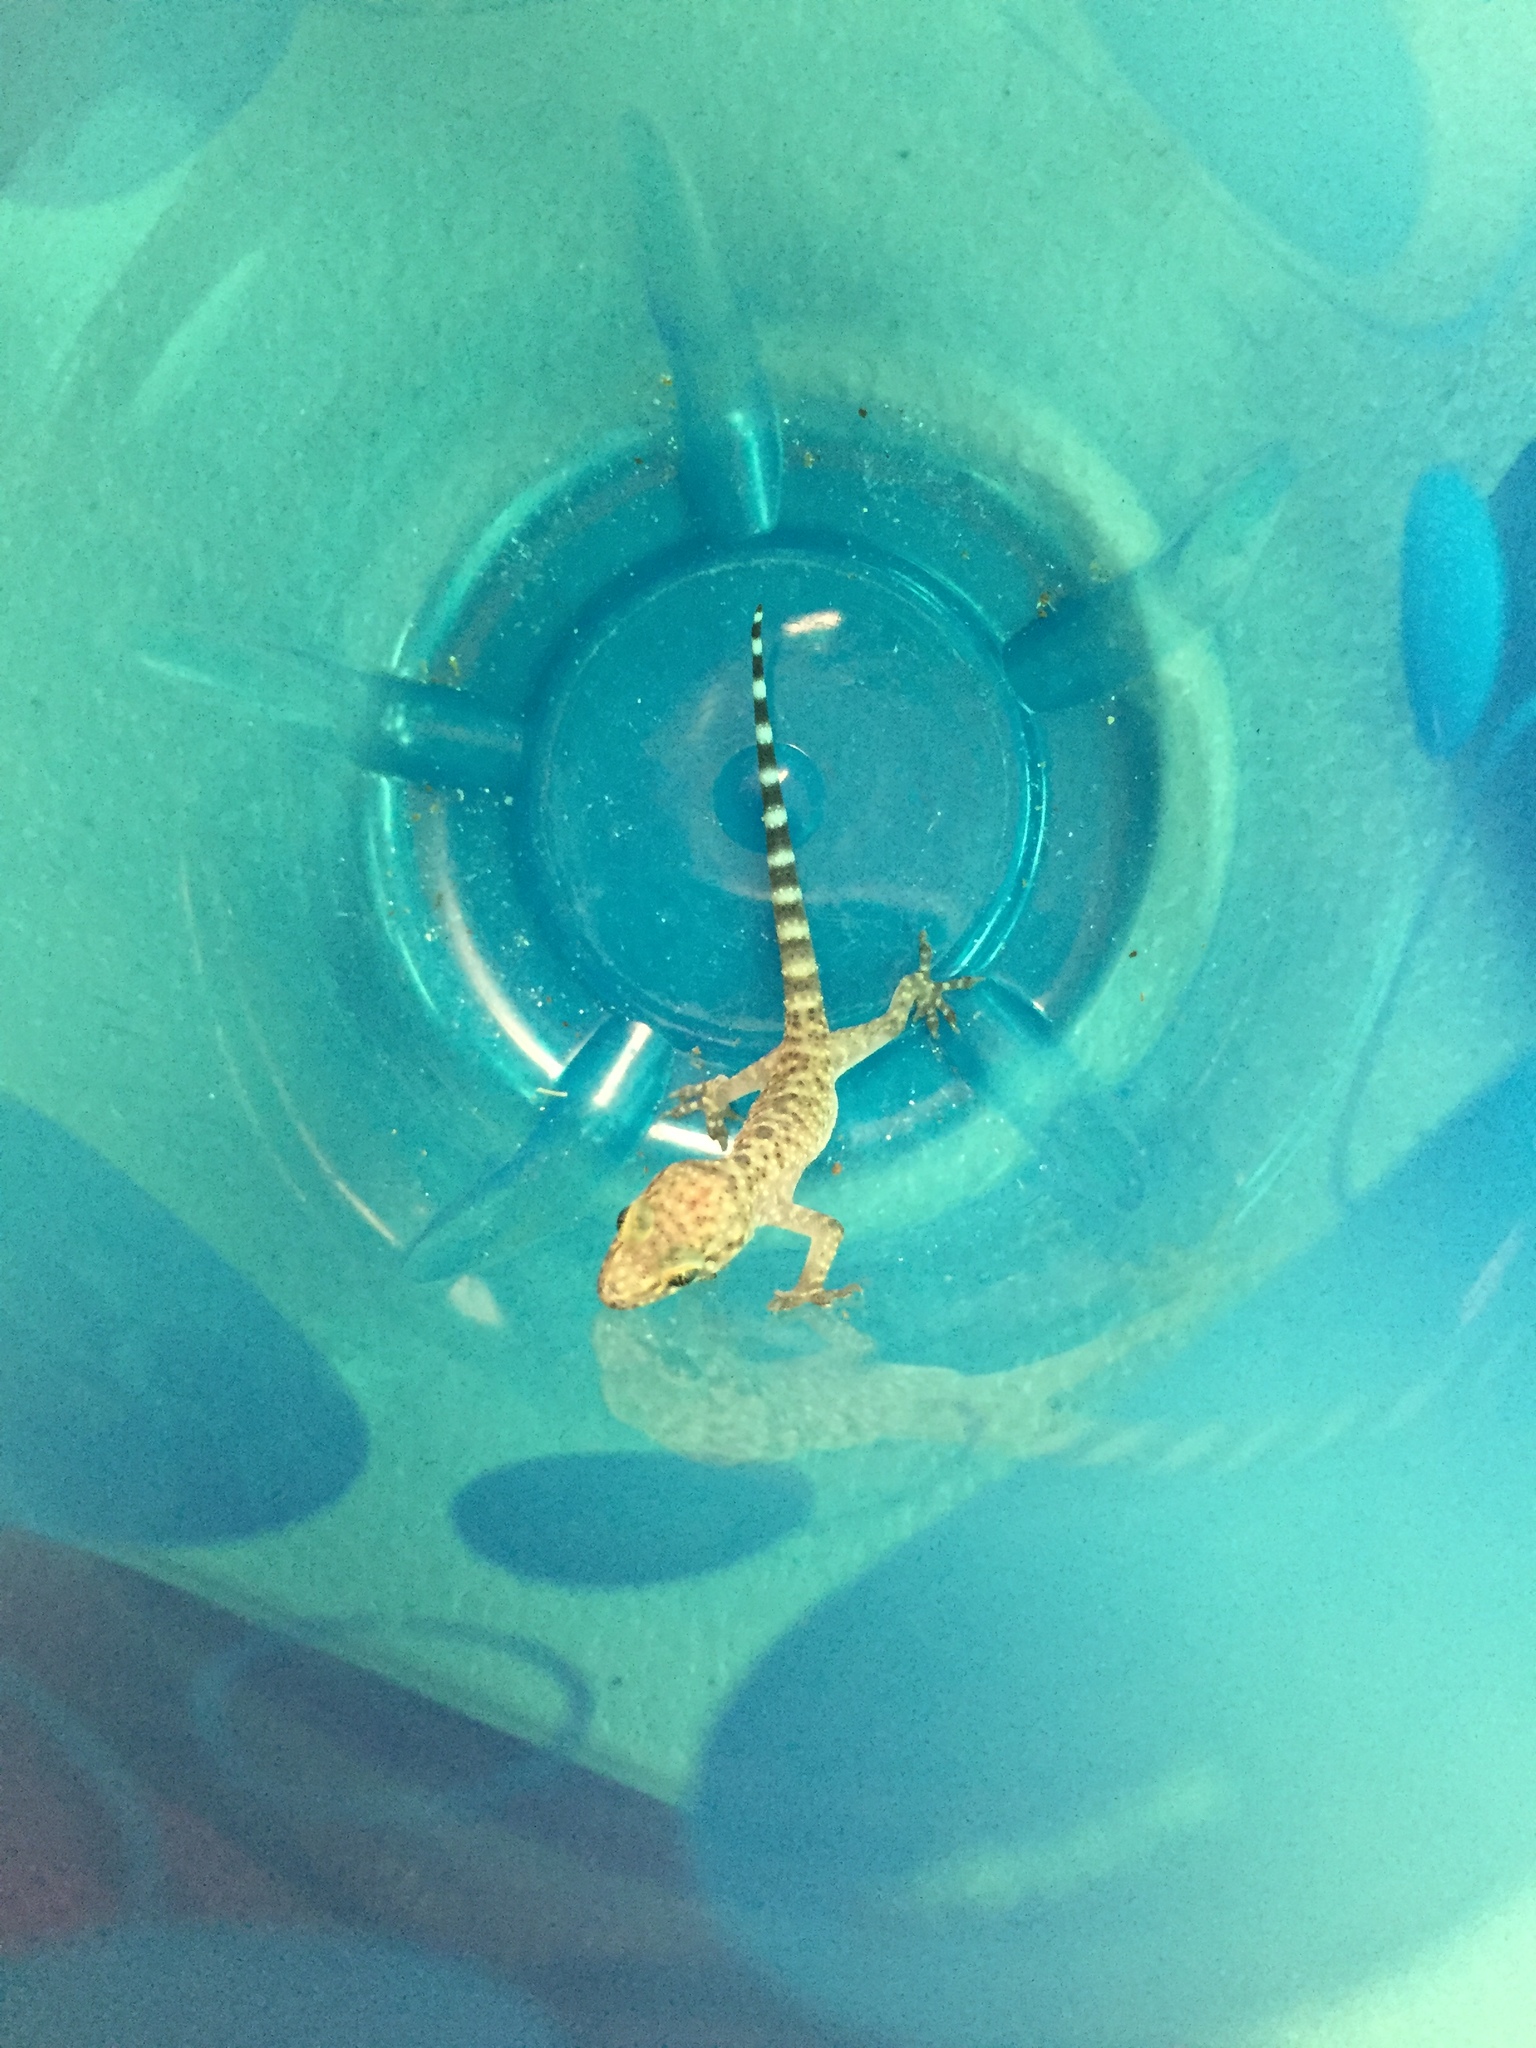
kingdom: Animalia
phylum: Chordata
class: Squamata
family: Gekkonidae
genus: Hemidactylus
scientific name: Hemidactylus turcicus
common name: Turkish gecko
